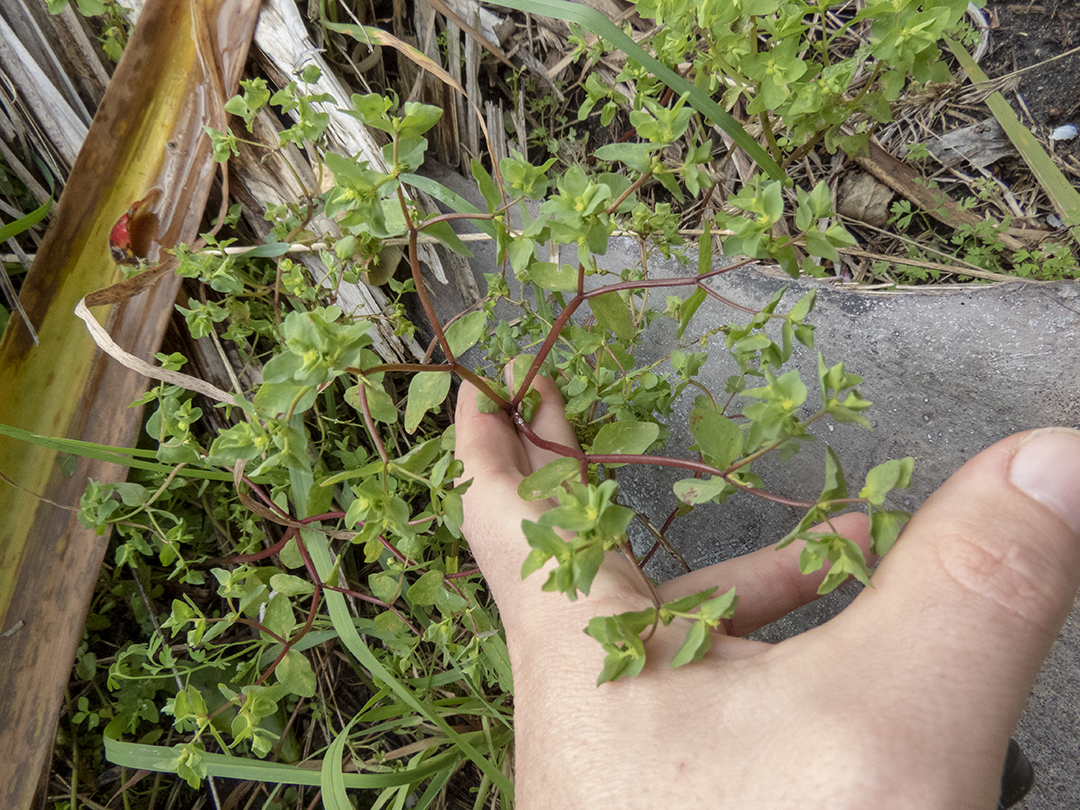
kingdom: Plantae
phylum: Tracheophyta
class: Magnoliopsida
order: Malpighiales
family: Euphorbiaceae
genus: Euphorbia
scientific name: Euphorbia peplus
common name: Petty spurge
